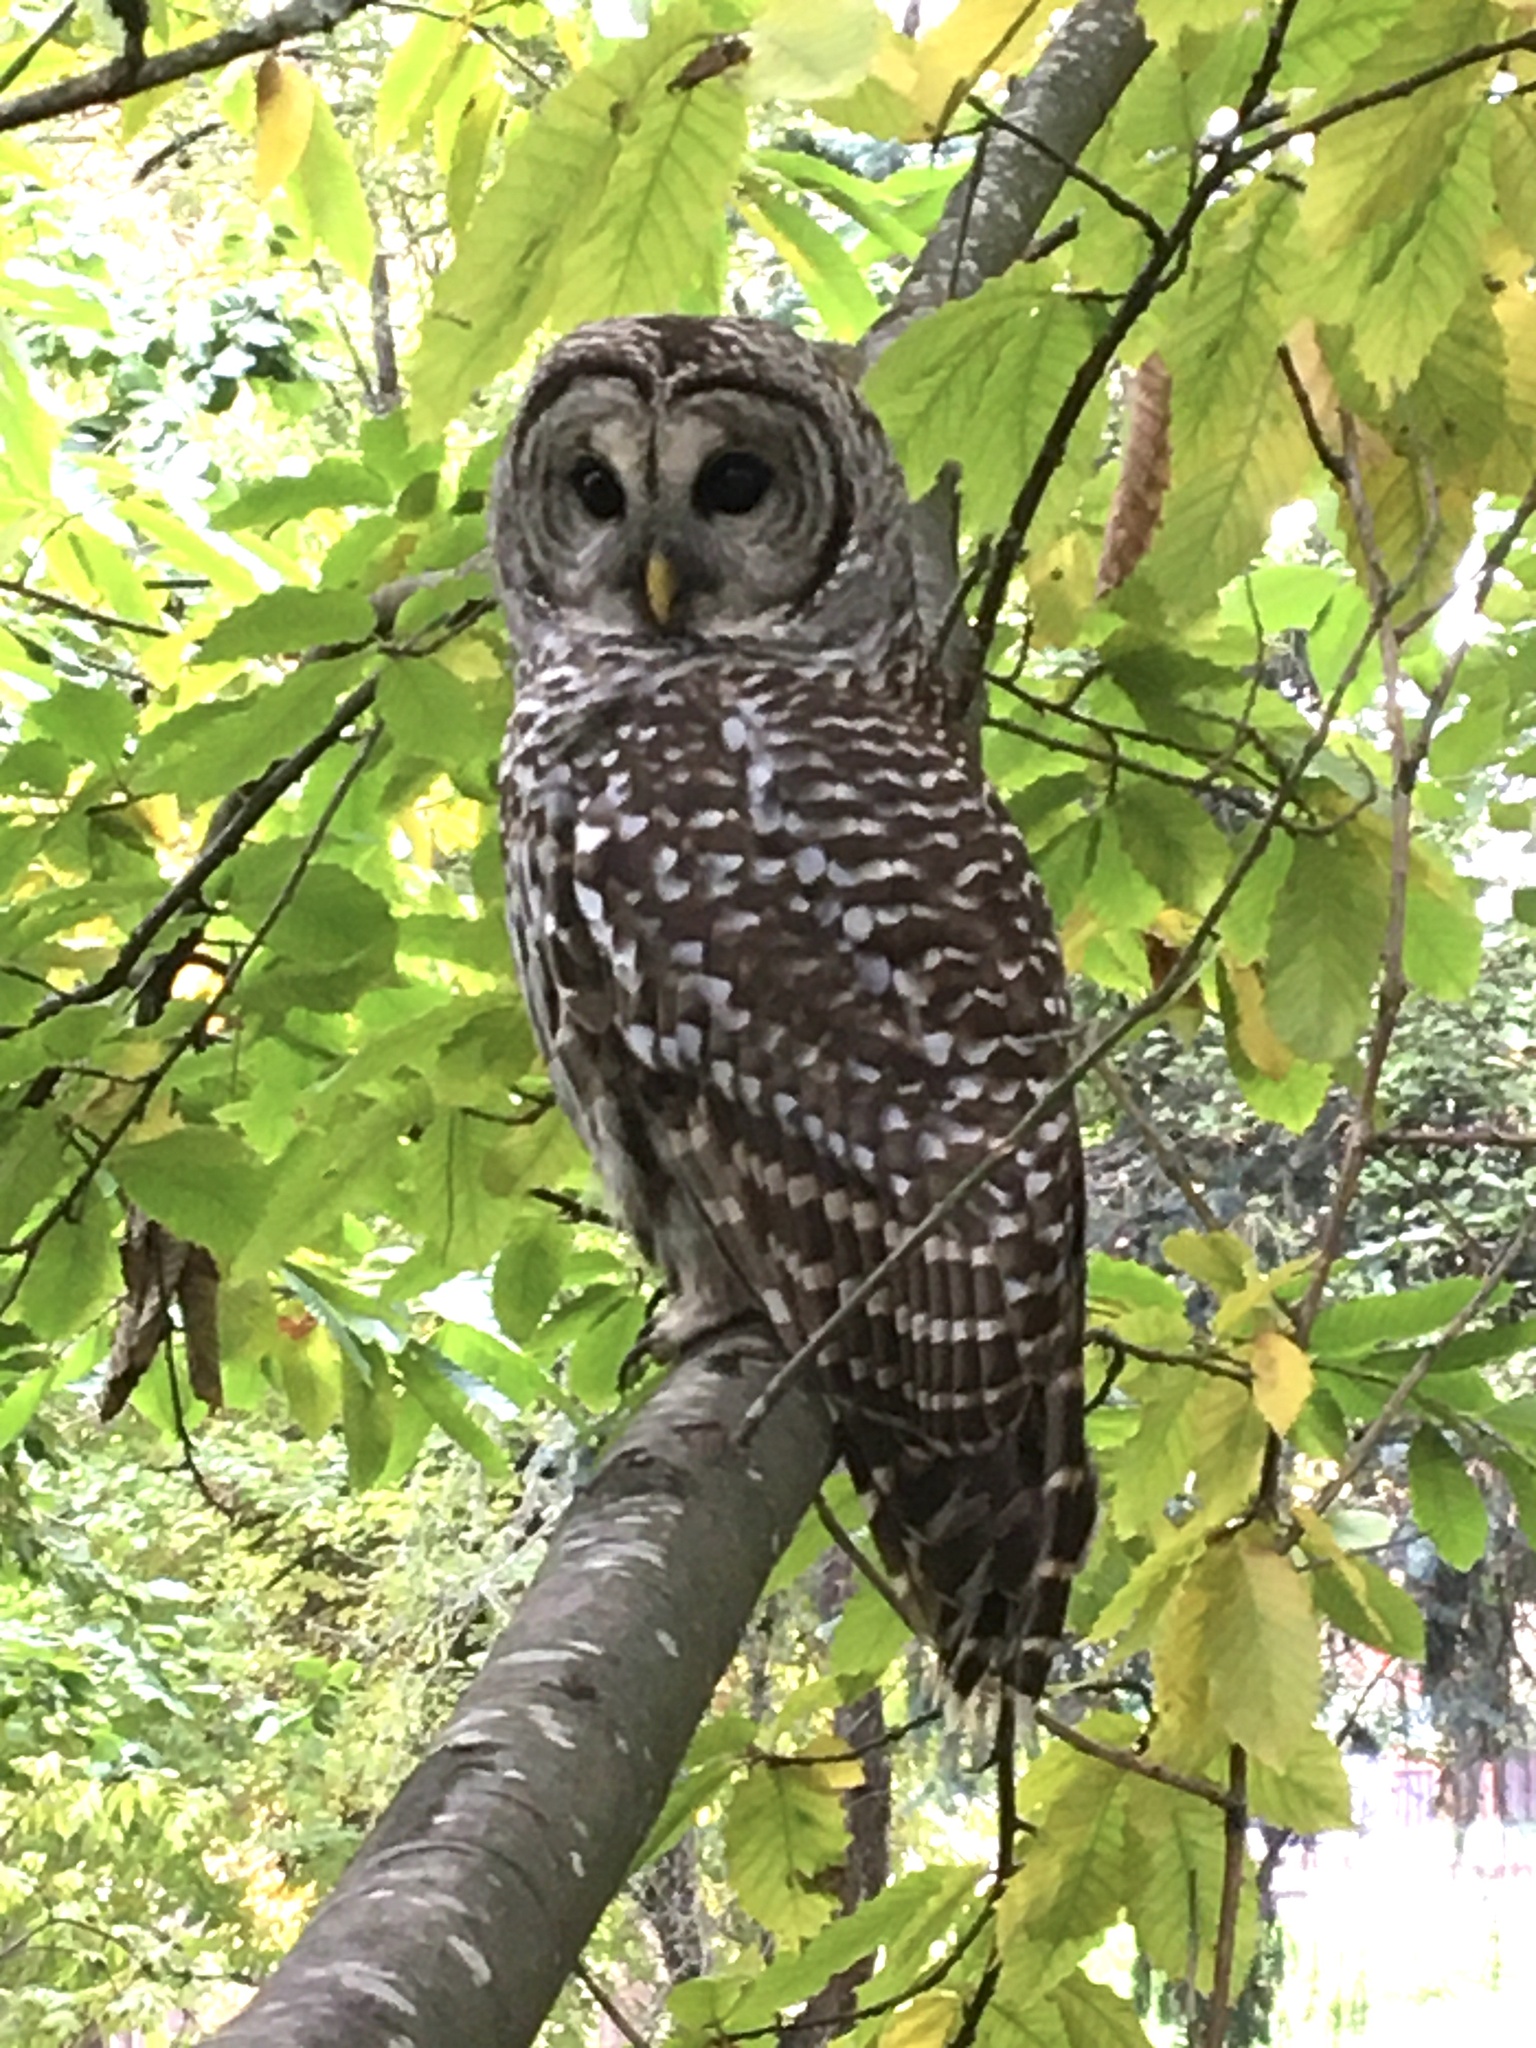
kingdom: Animalia
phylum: Chordata
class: Aves
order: Strigiformes
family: Strigidae
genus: Strix
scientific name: Strix varia
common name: Barred owl
